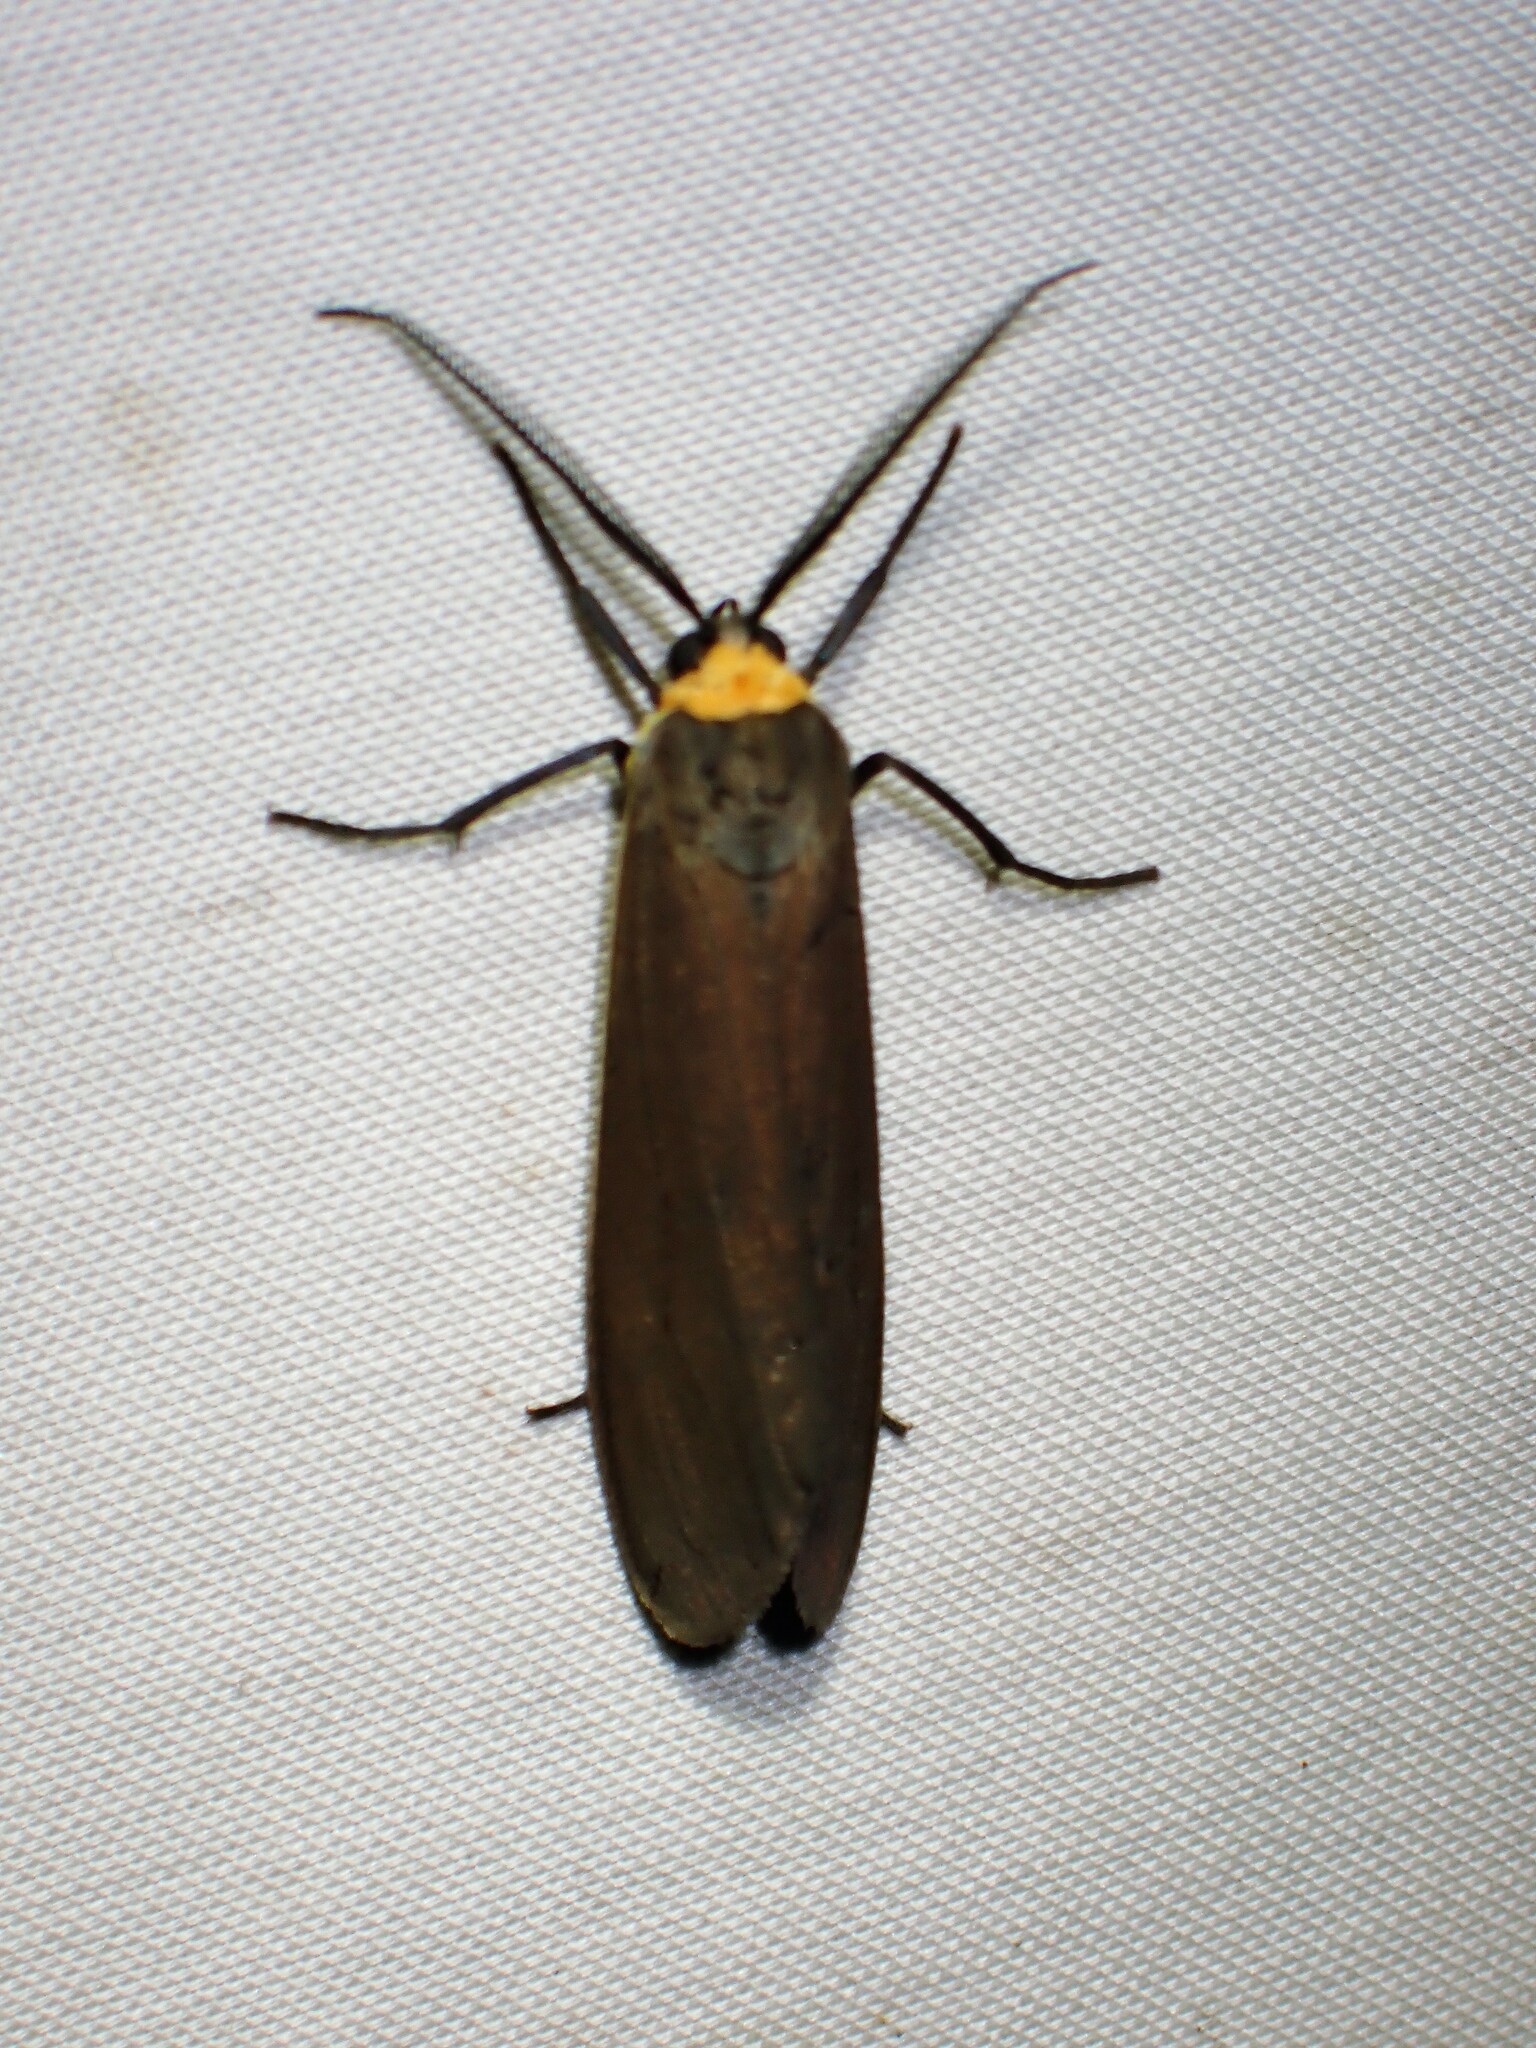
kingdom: Animalia
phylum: Arthropoda
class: Insecta
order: Lepidoptera
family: Erebidae
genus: Cisseps
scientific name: Cisseps fulvicollis
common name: Yellow-collared scape moth
